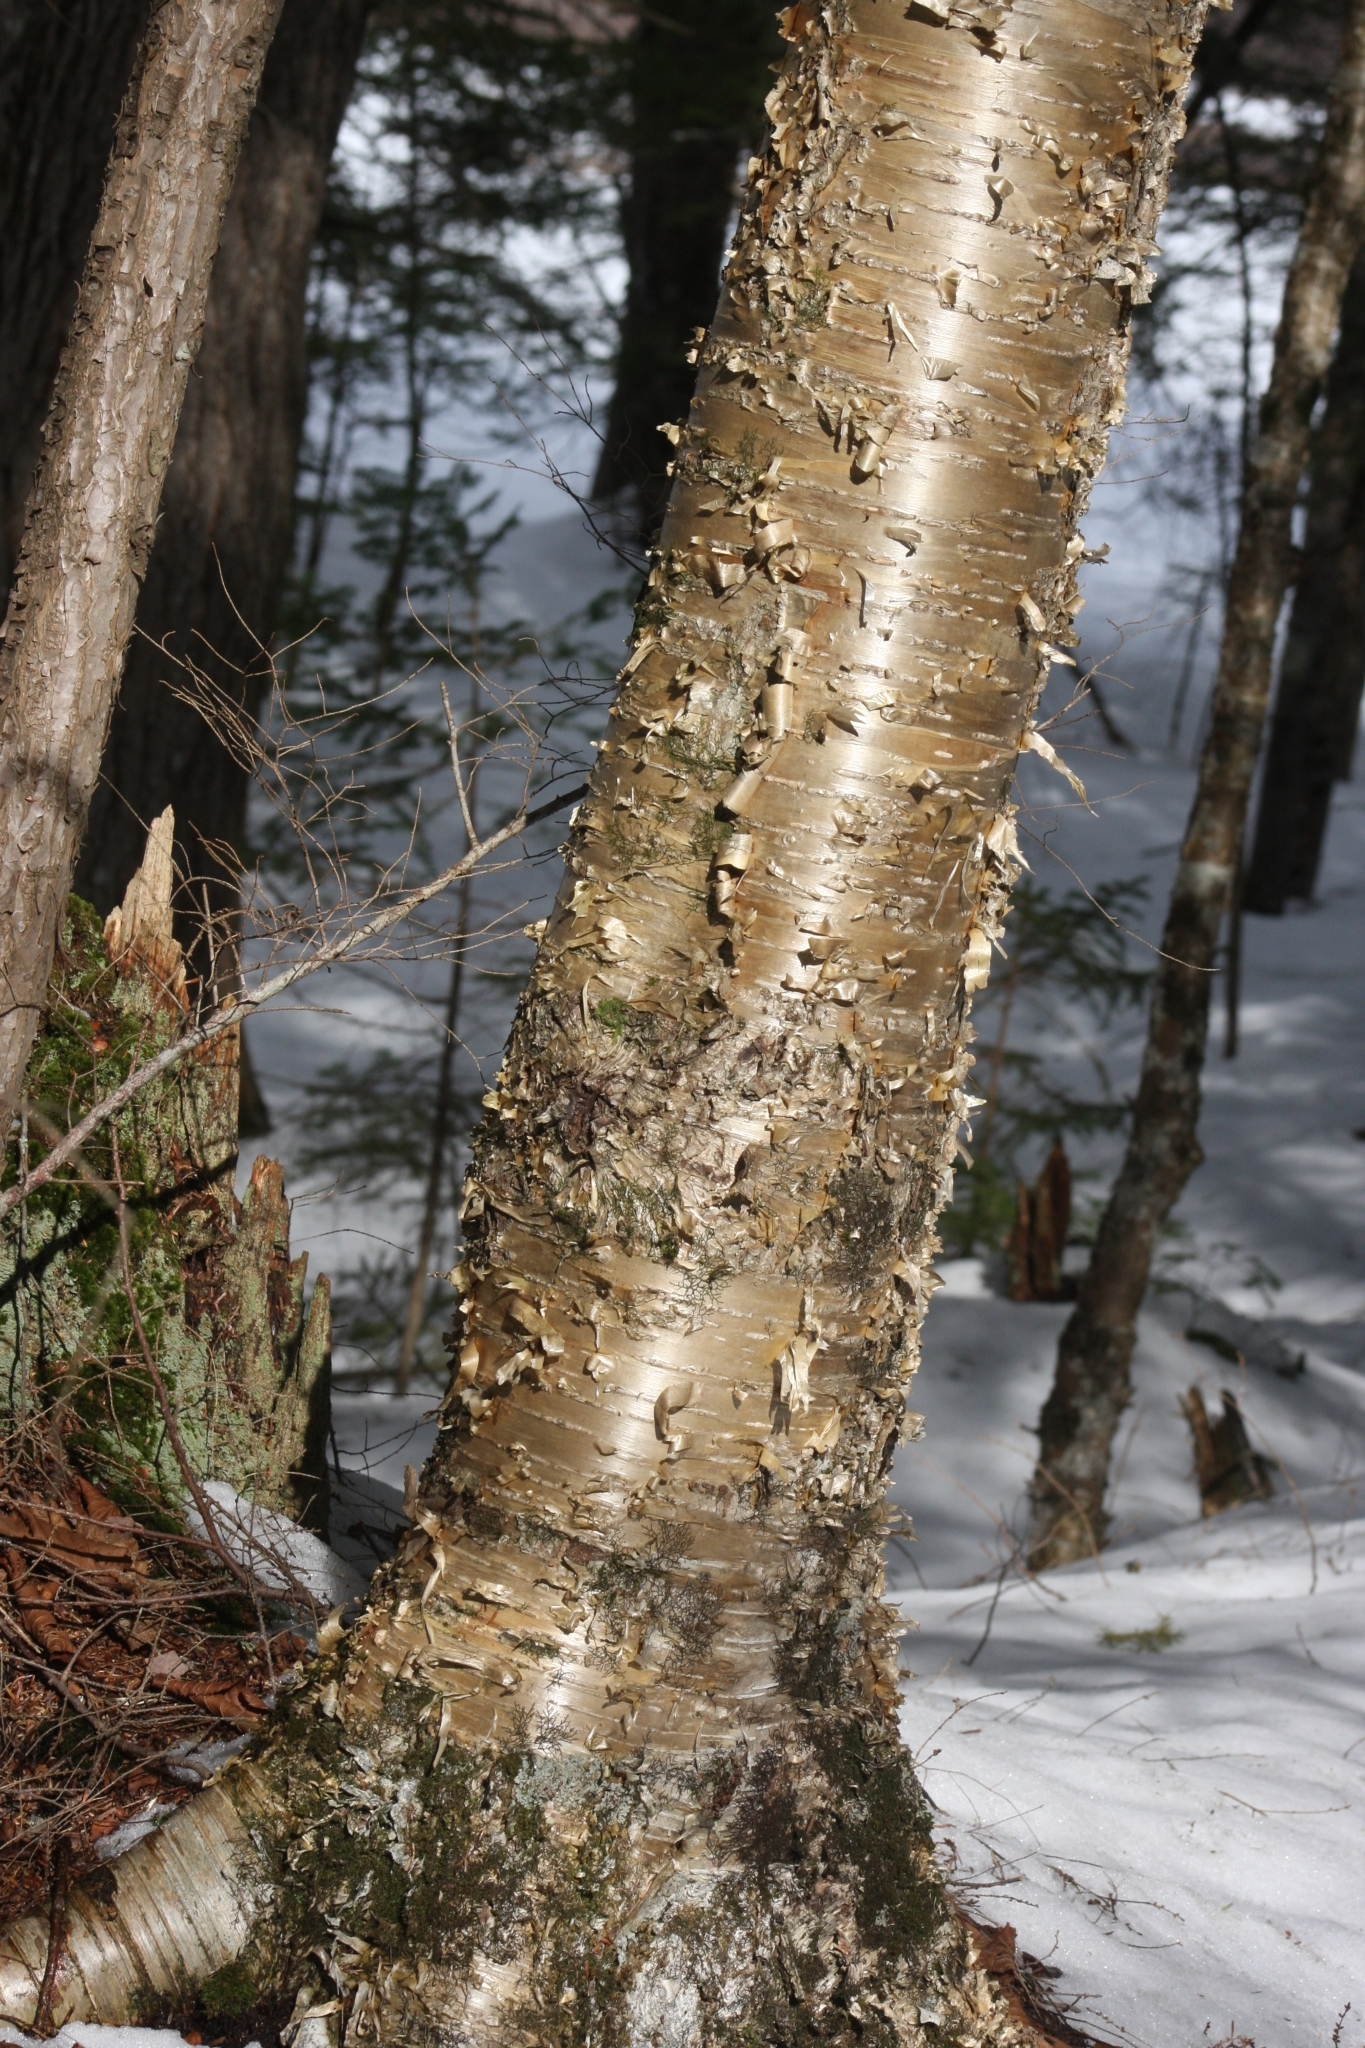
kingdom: Plantae
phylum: Tracheophyta
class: Magnoliopsida
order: Fagales
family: Betulaceae
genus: Betula
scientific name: Betula alleghaniensis
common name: Yellow birch
